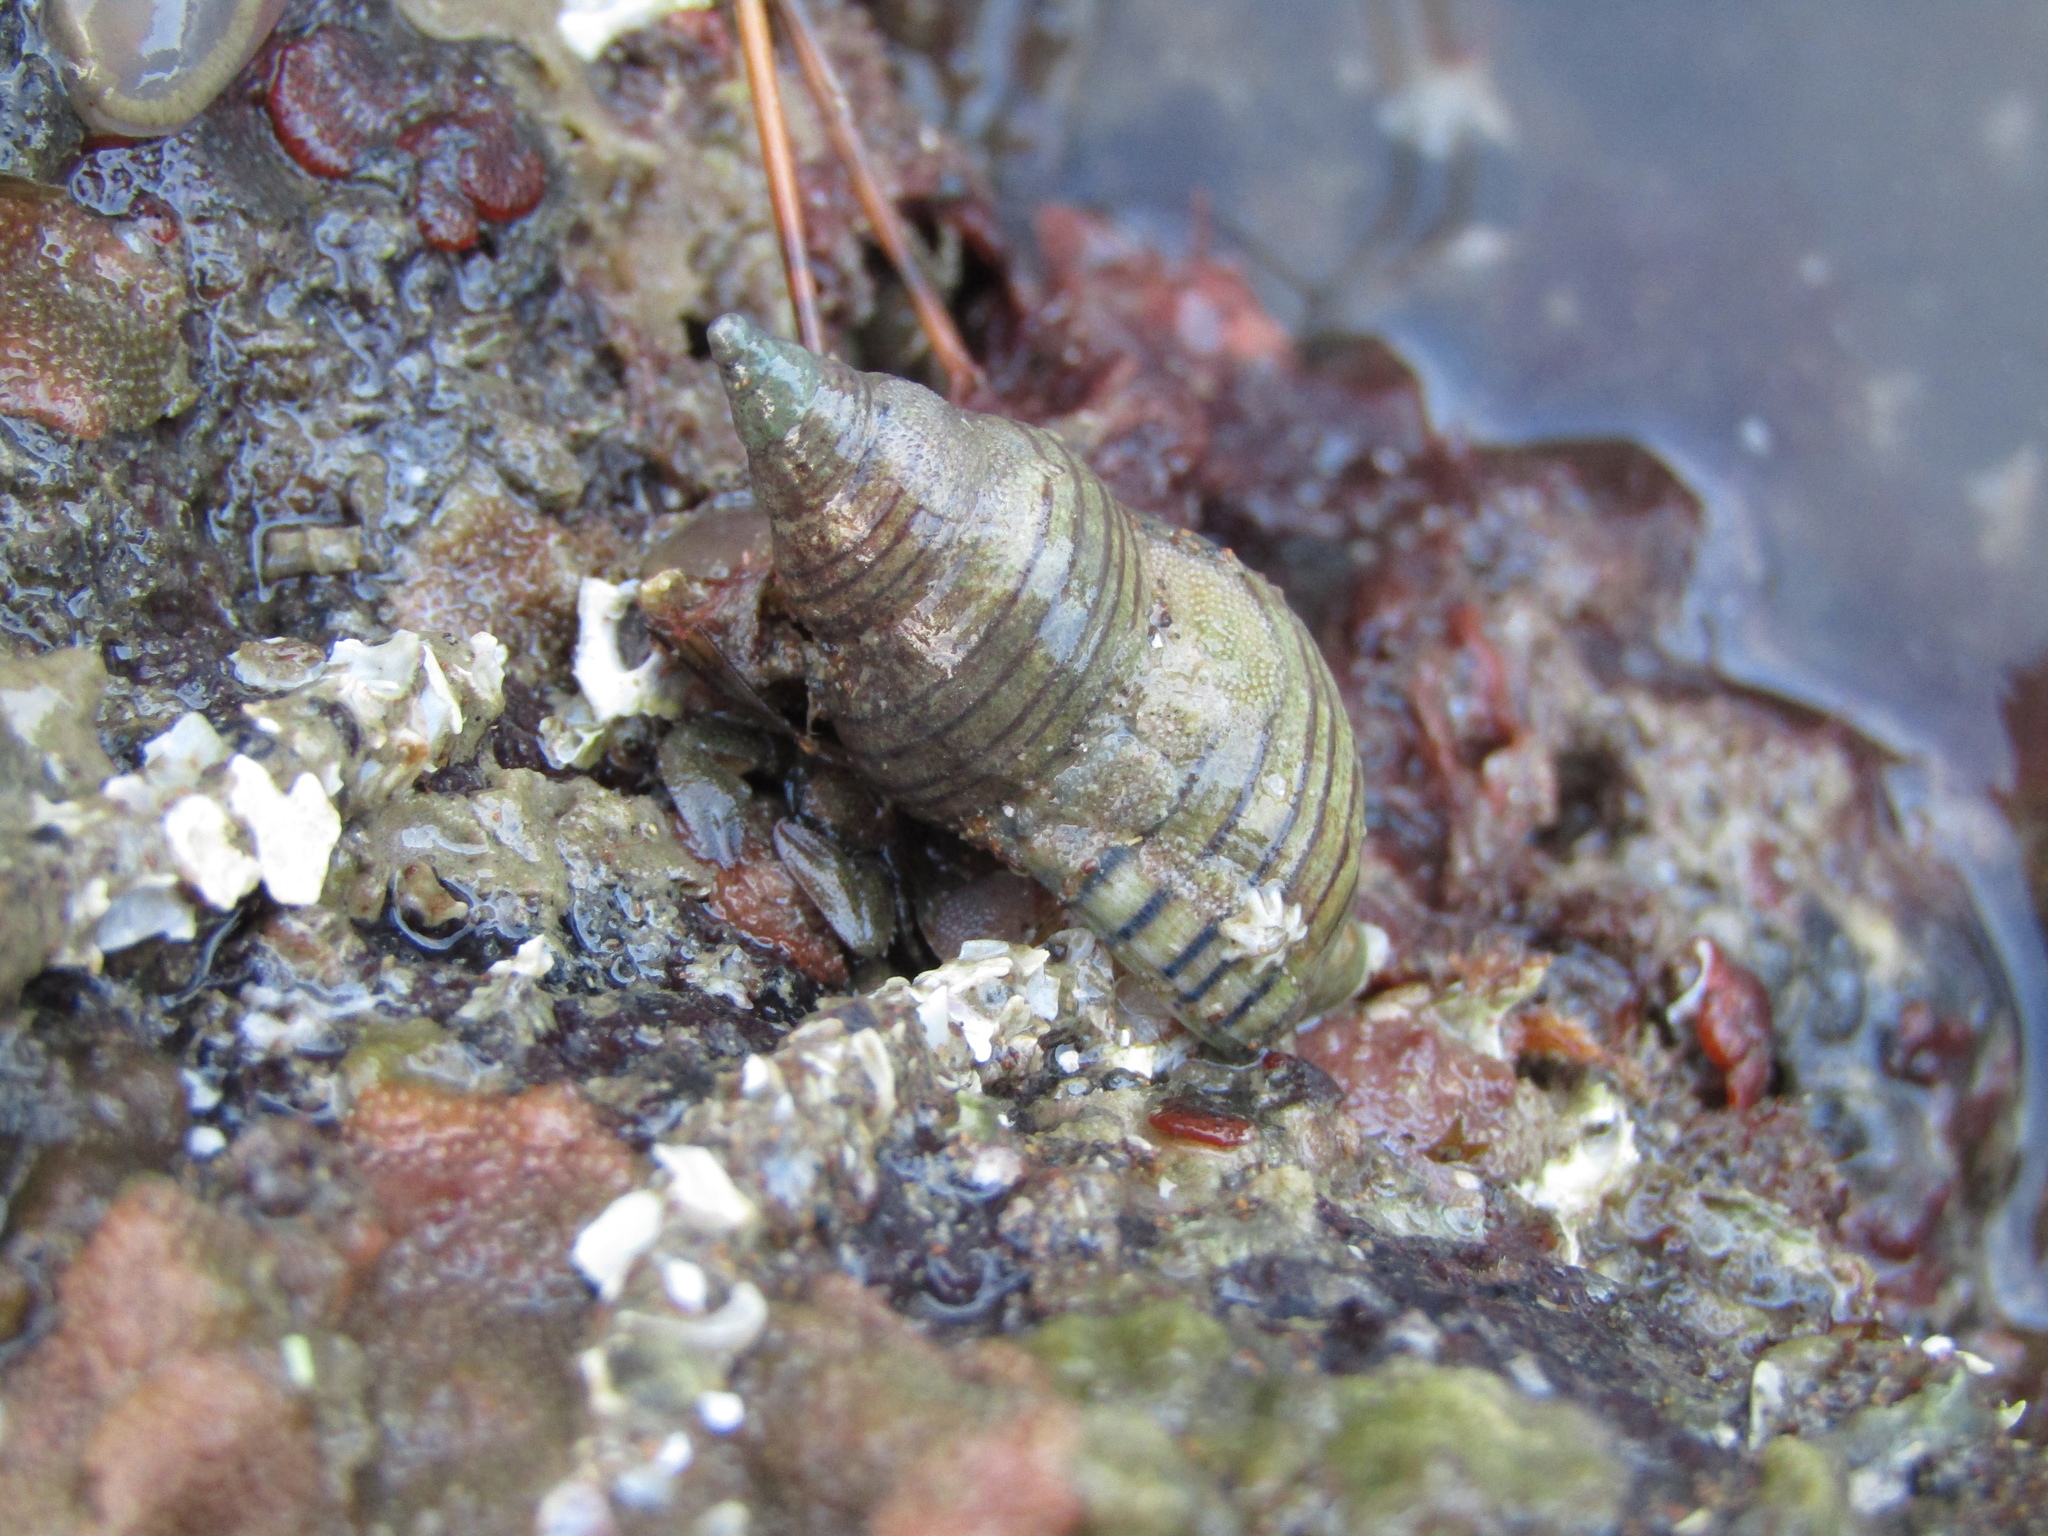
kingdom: Animalia
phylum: Mollusca
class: Gastropoda
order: Neogastropoda
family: Tudiclidae
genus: Buccinulum
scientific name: Buccinulum linea
